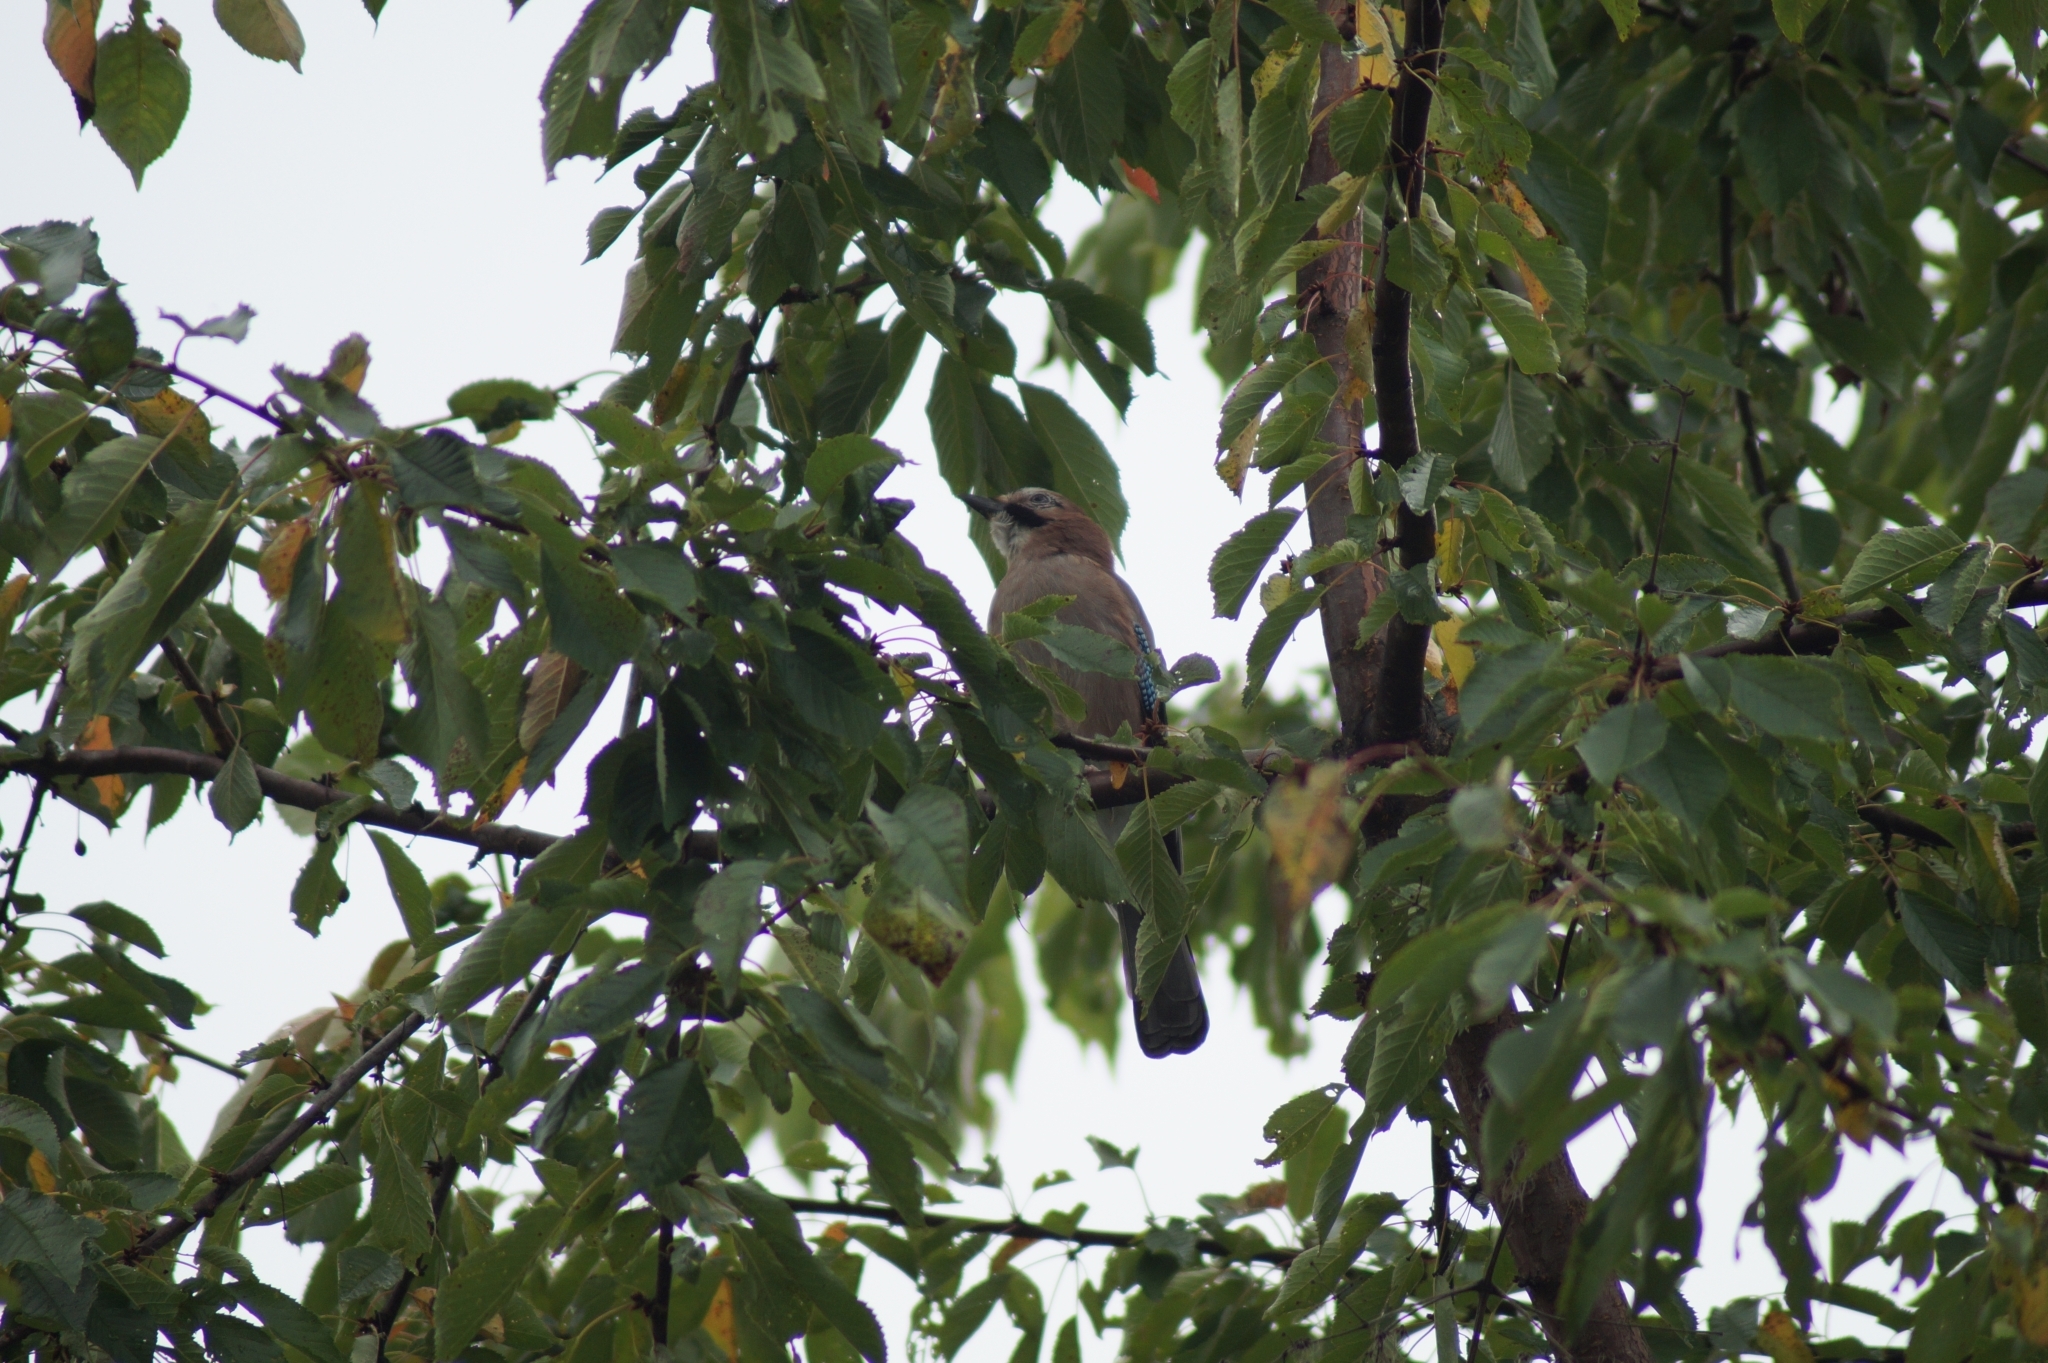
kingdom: Animalia
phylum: Chordata
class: Aves
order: Passeriformes
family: Corvidae
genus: Garrulus
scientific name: Garrulus glandarius
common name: Eurasian jay
